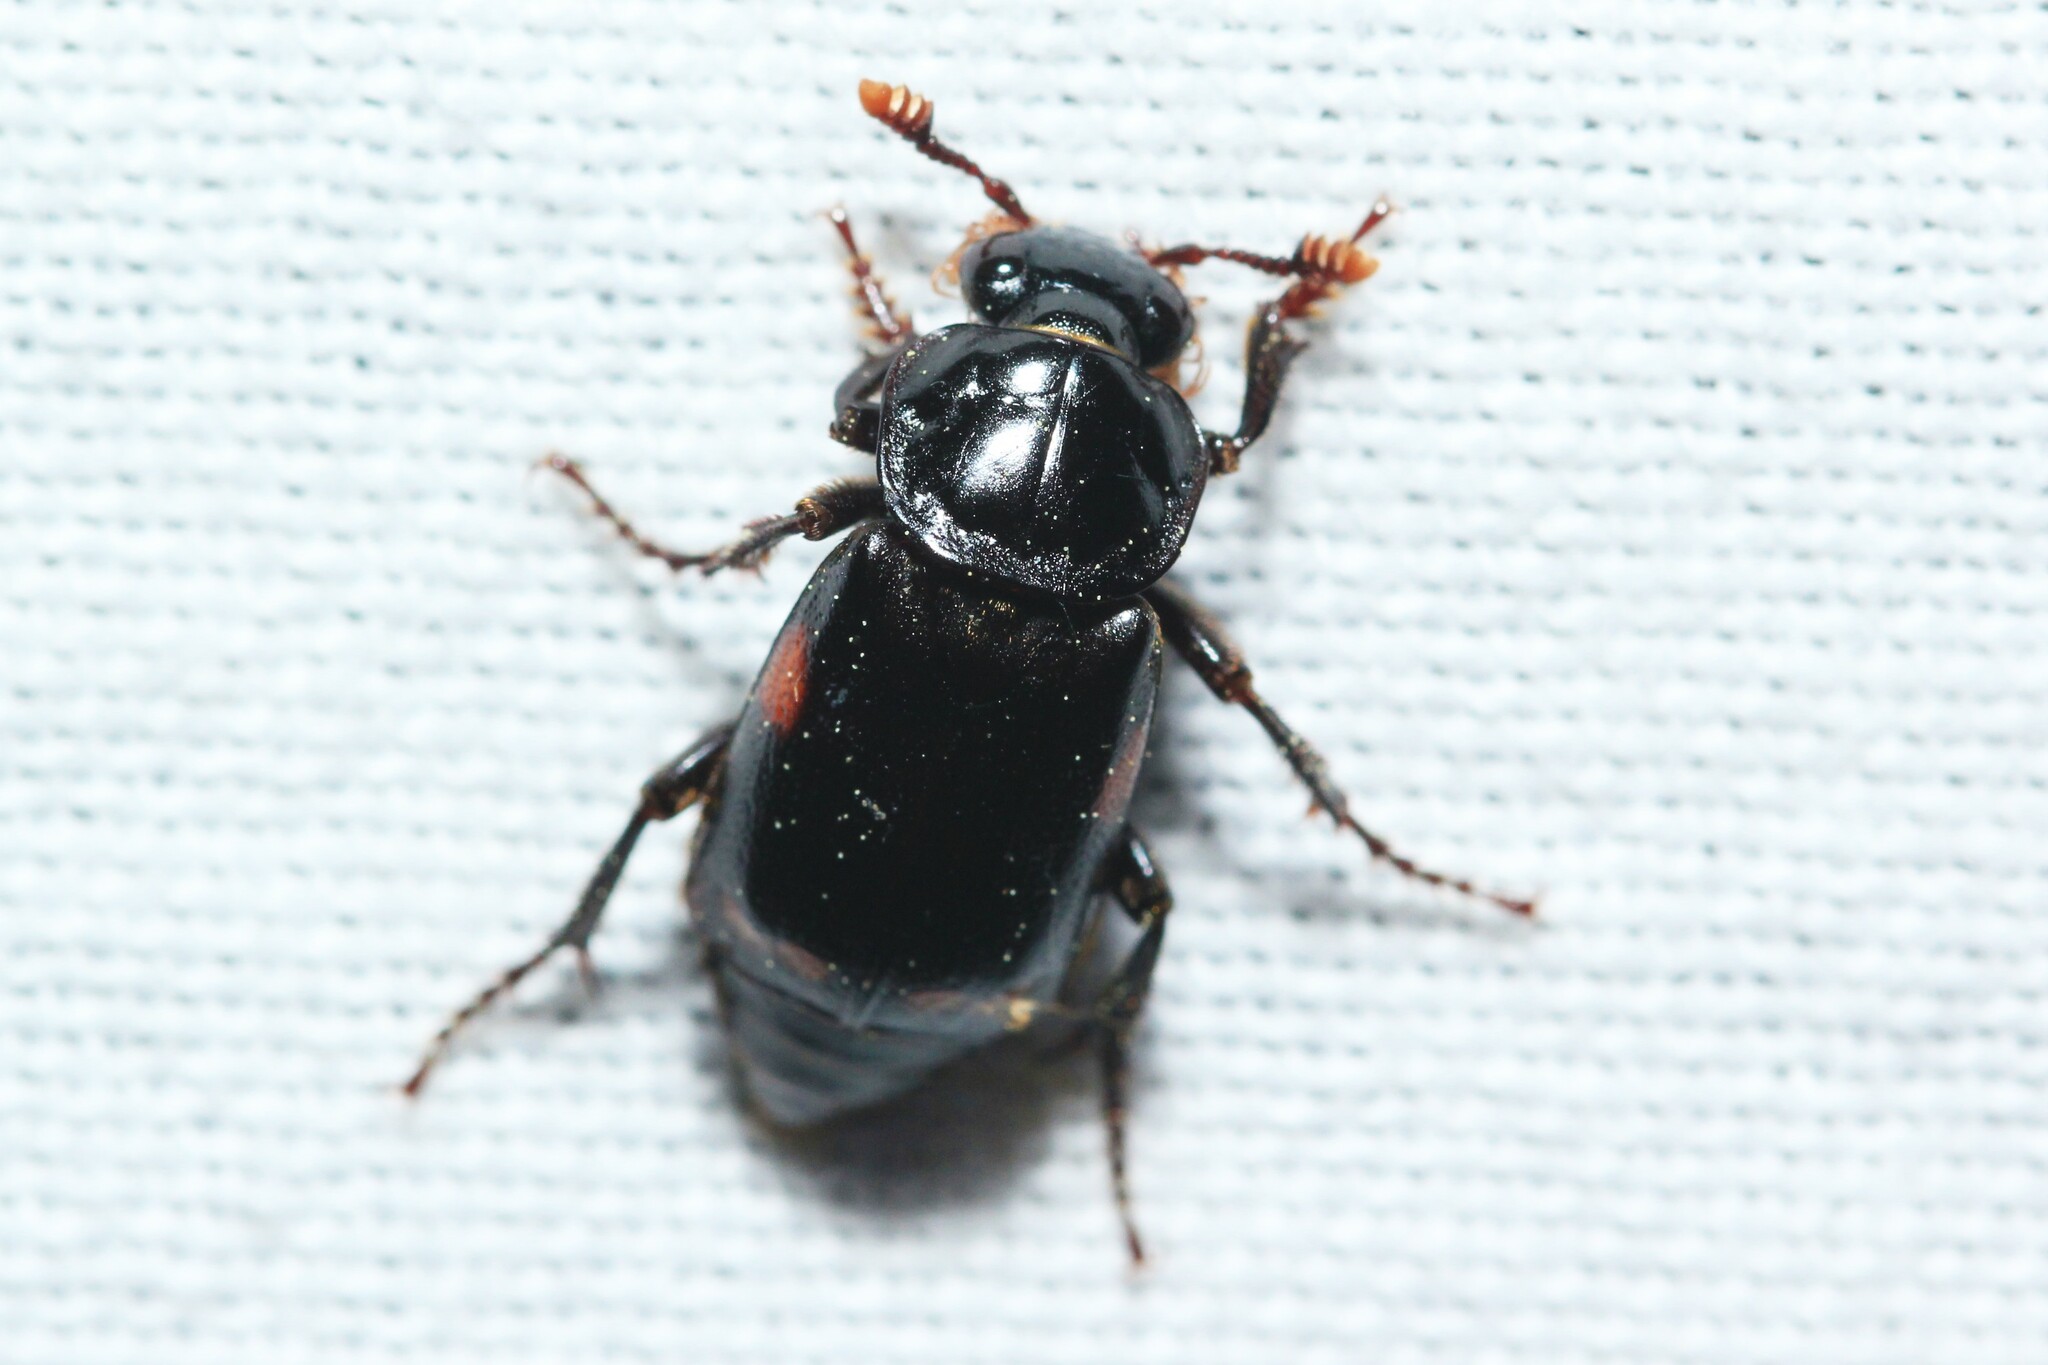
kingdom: Animalia
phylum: Arthropoda
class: Insecta
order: Coleoptera
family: Staphylinidae
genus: Nicrophorus
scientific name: Nicrophorus pustulatus
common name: Pustulated carrion beetle
